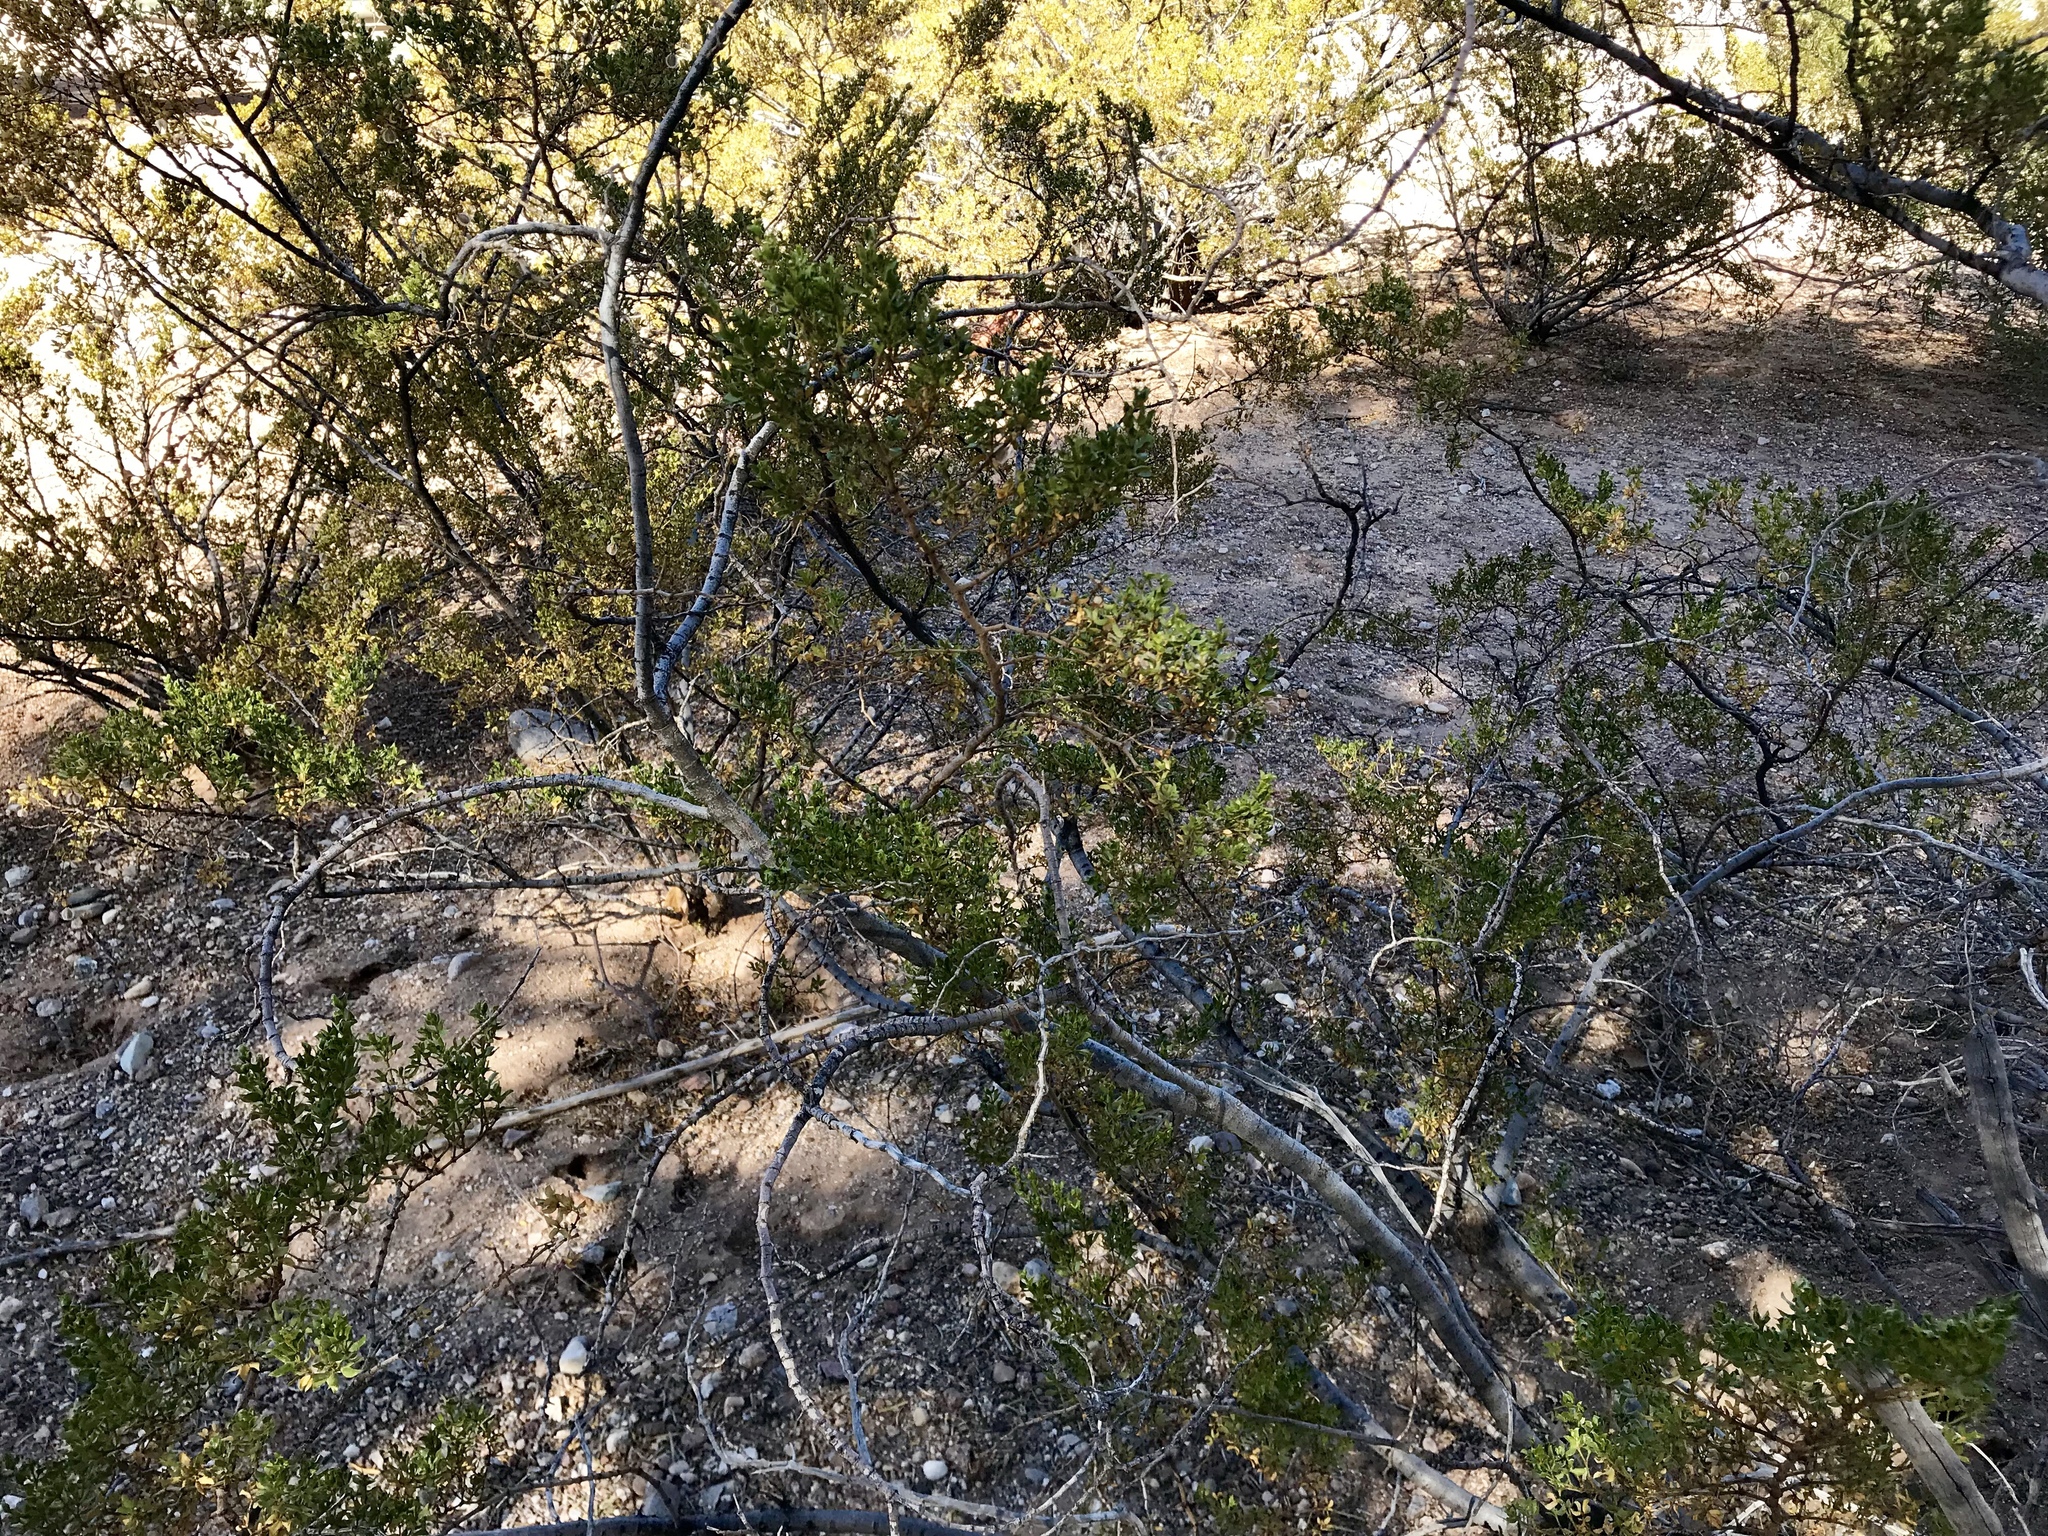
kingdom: Plantae
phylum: Tracheophyta
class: Magnoliopsida
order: Zygophyllales
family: Zygophyllaceae
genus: Larrea
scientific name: Larrea tridentata
